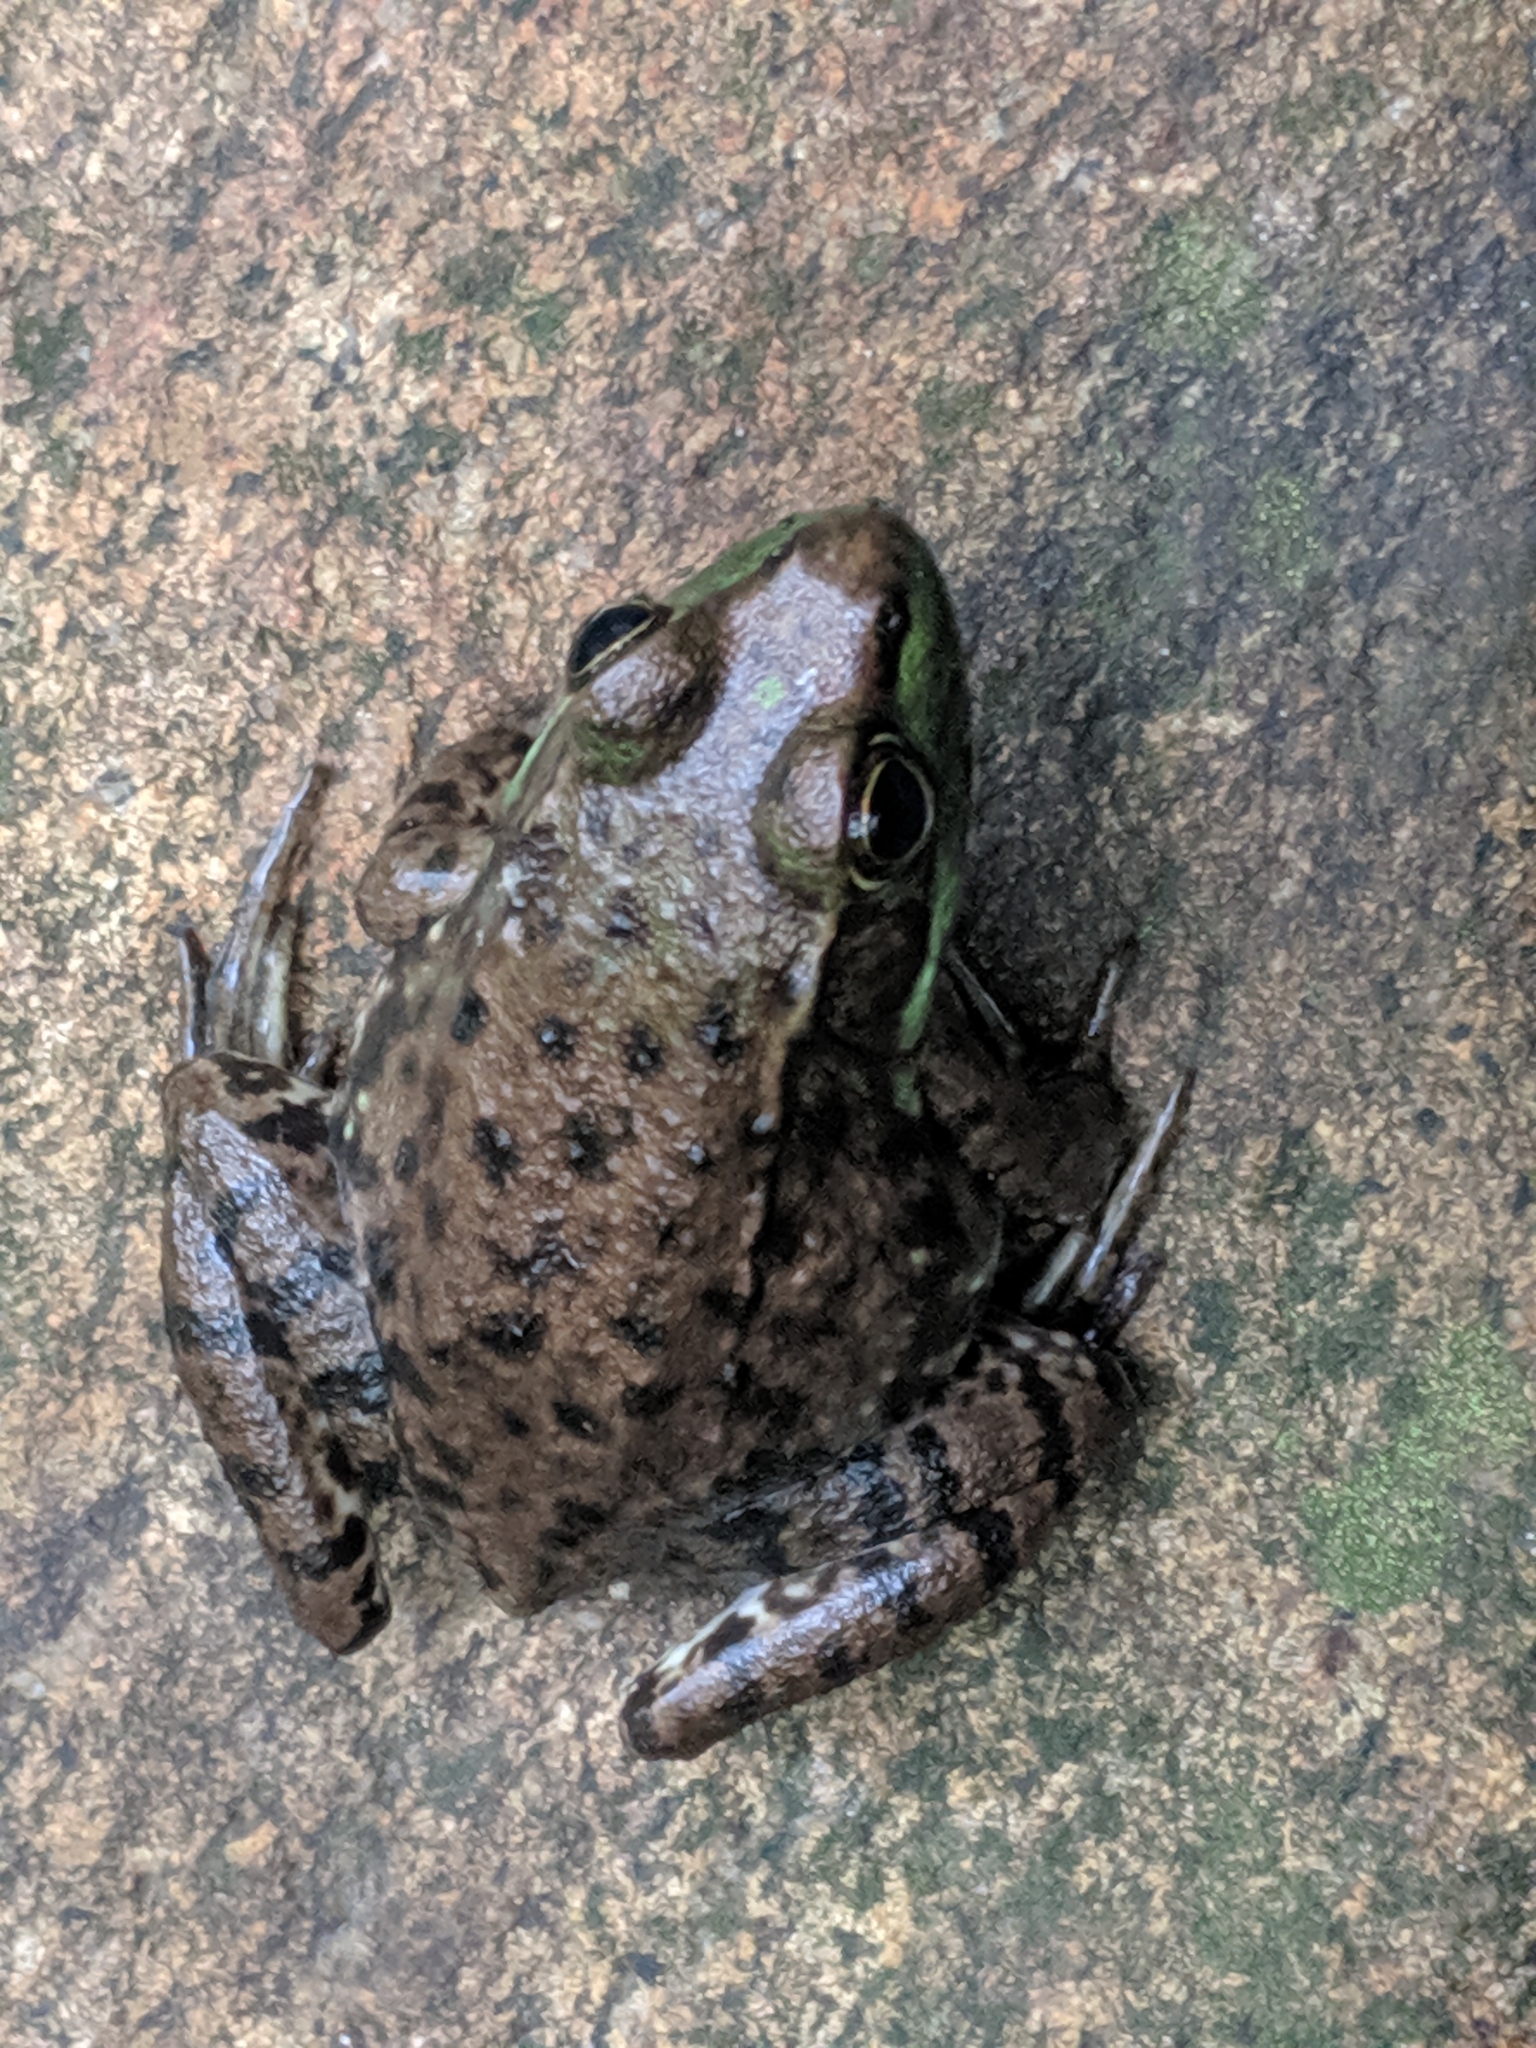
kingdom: Animalia
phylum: Chordata
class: Amphibia
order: Anura
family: Ranidae
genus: Lithobates
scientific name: Lithobates clamitans
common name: Green frog
